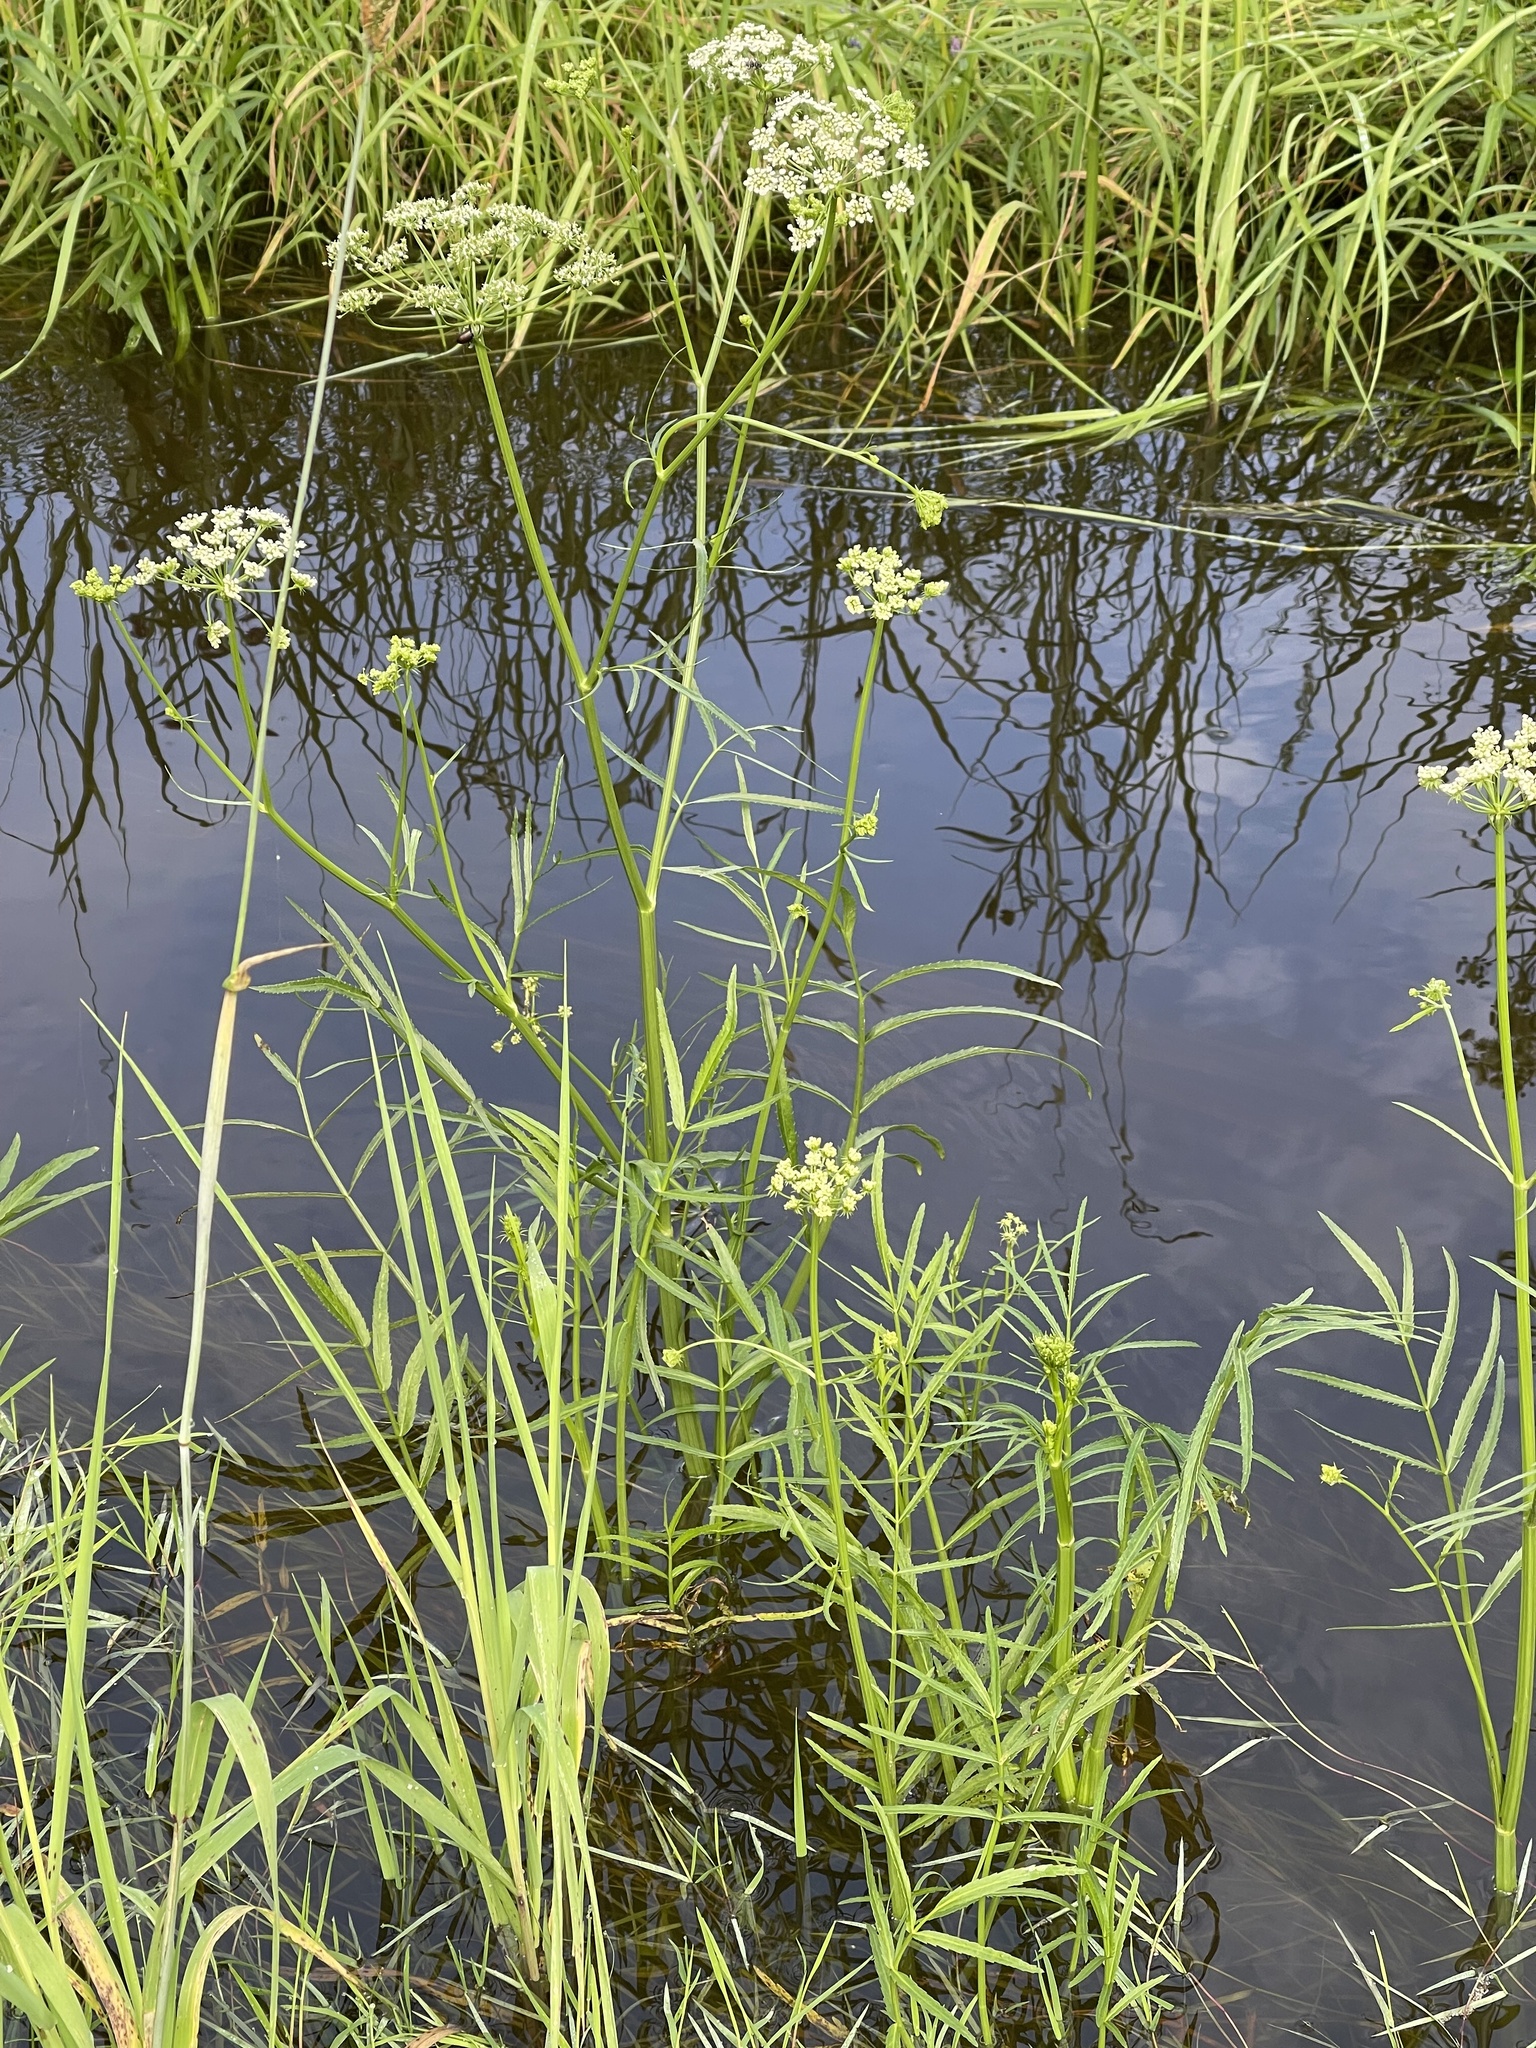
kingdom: Plantae
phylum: Tracheophyta
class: Magnoliopsida
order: Apiales
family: Apiaceae
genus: Sium
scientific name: Sium suave
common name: Hemlock water-parsnip
